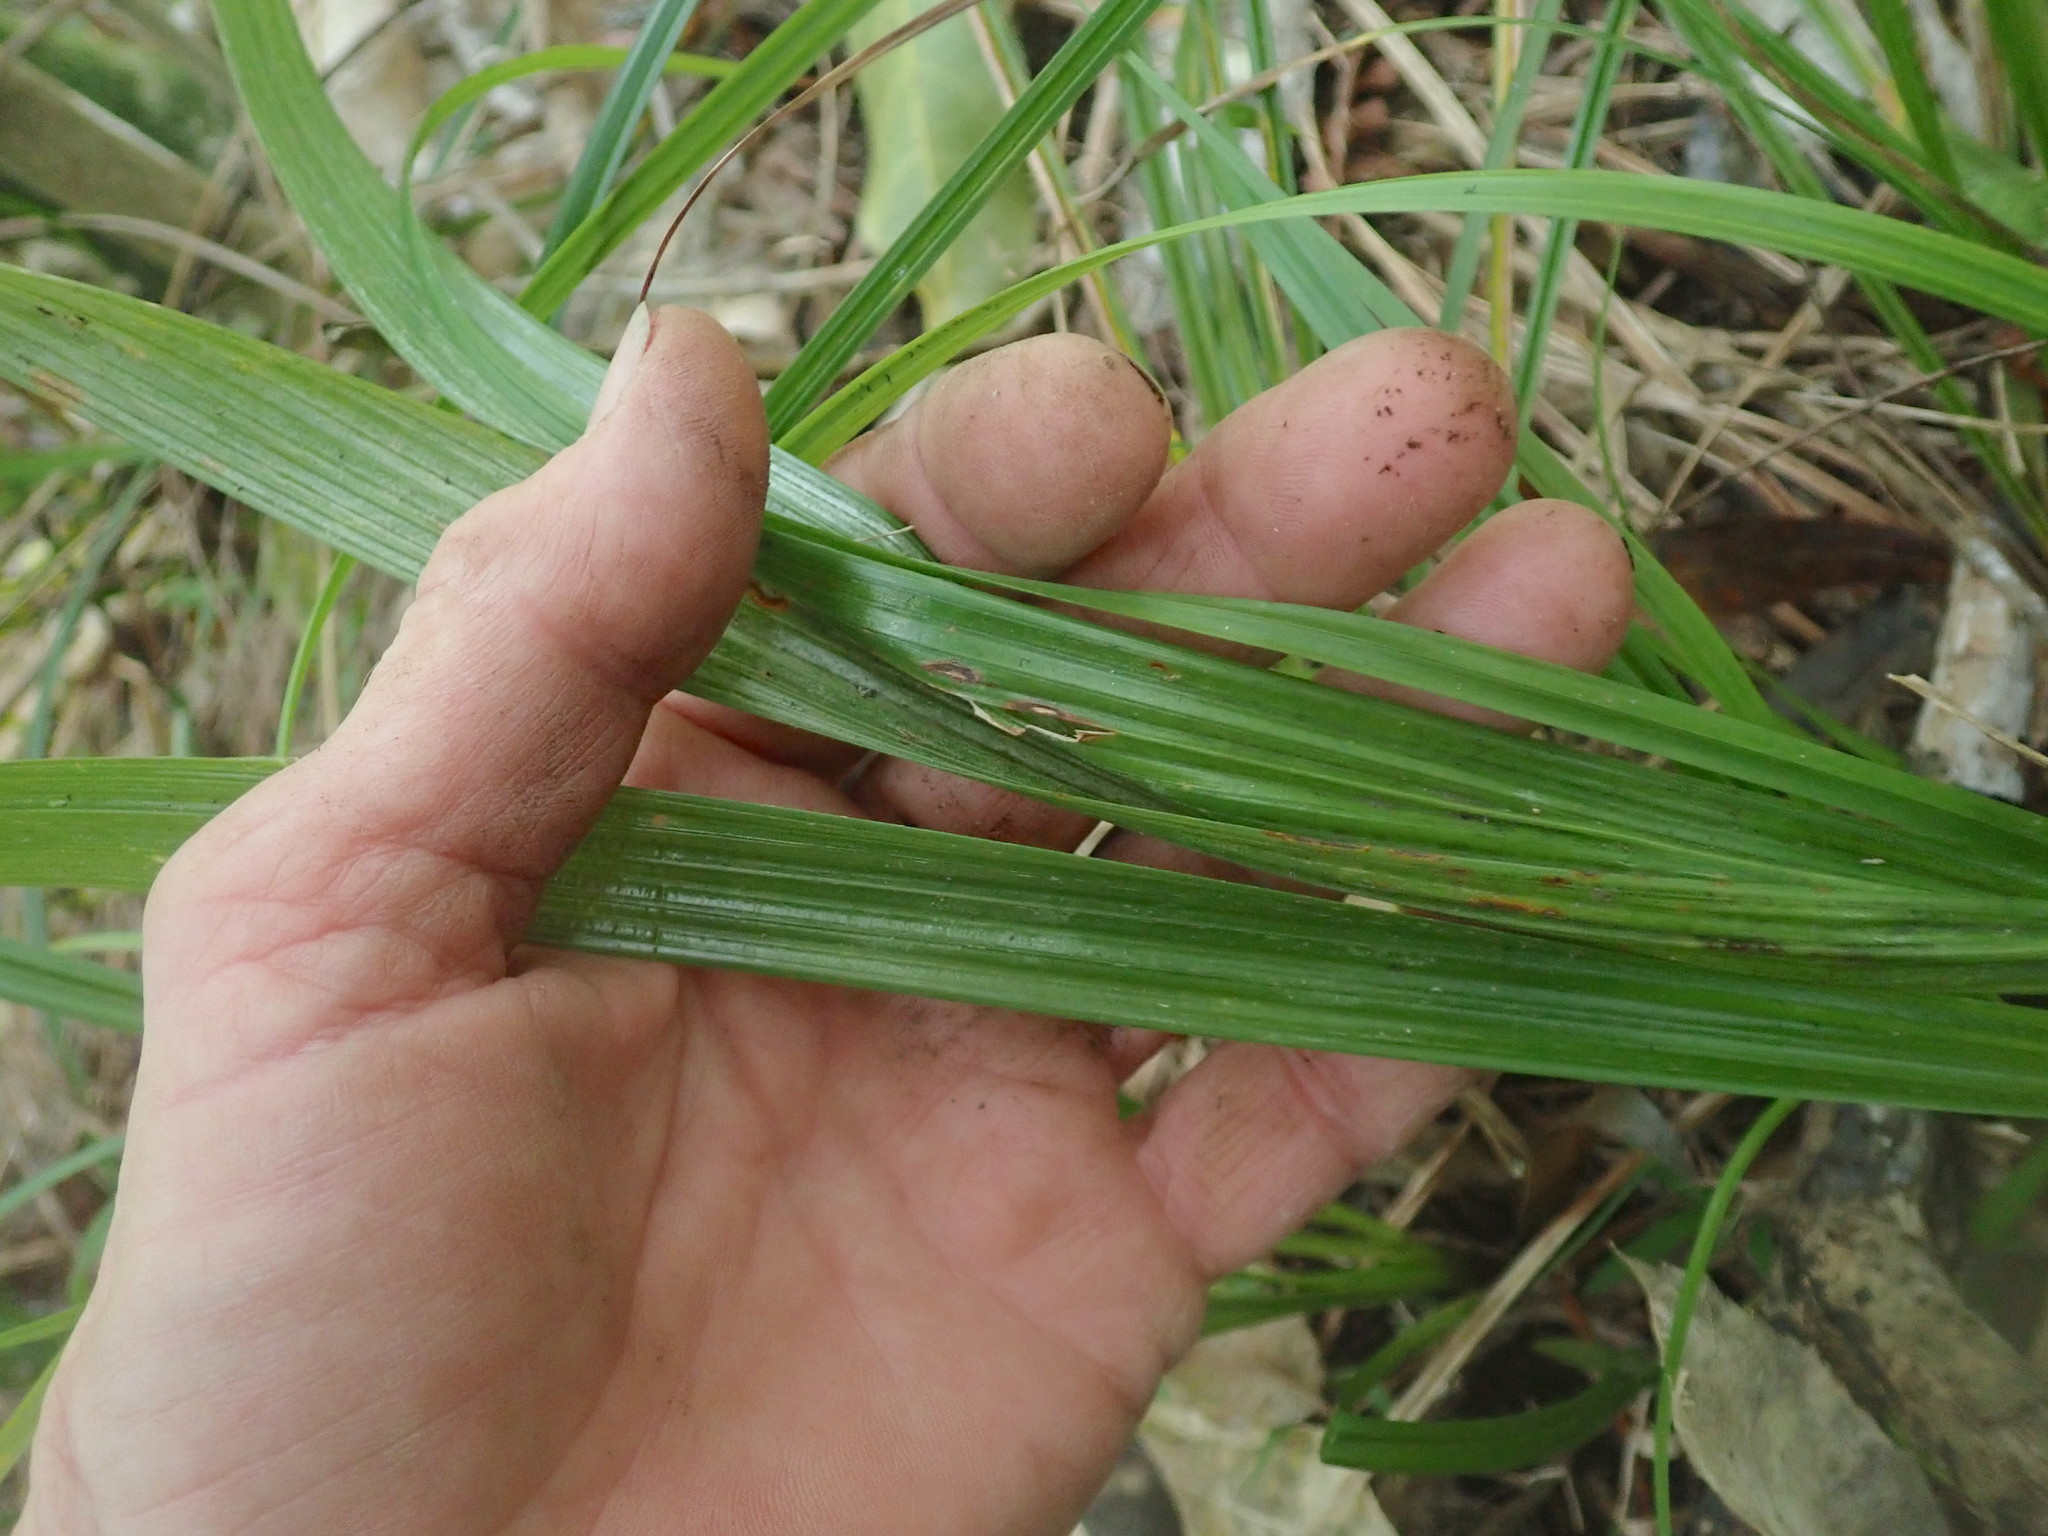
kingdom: Plantae
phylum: Tracheophyta
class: Liliopsida
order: Arecales
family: Arecaceae
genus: Phoenix
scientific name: Phoenix canariensis
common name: Canary island date palm
